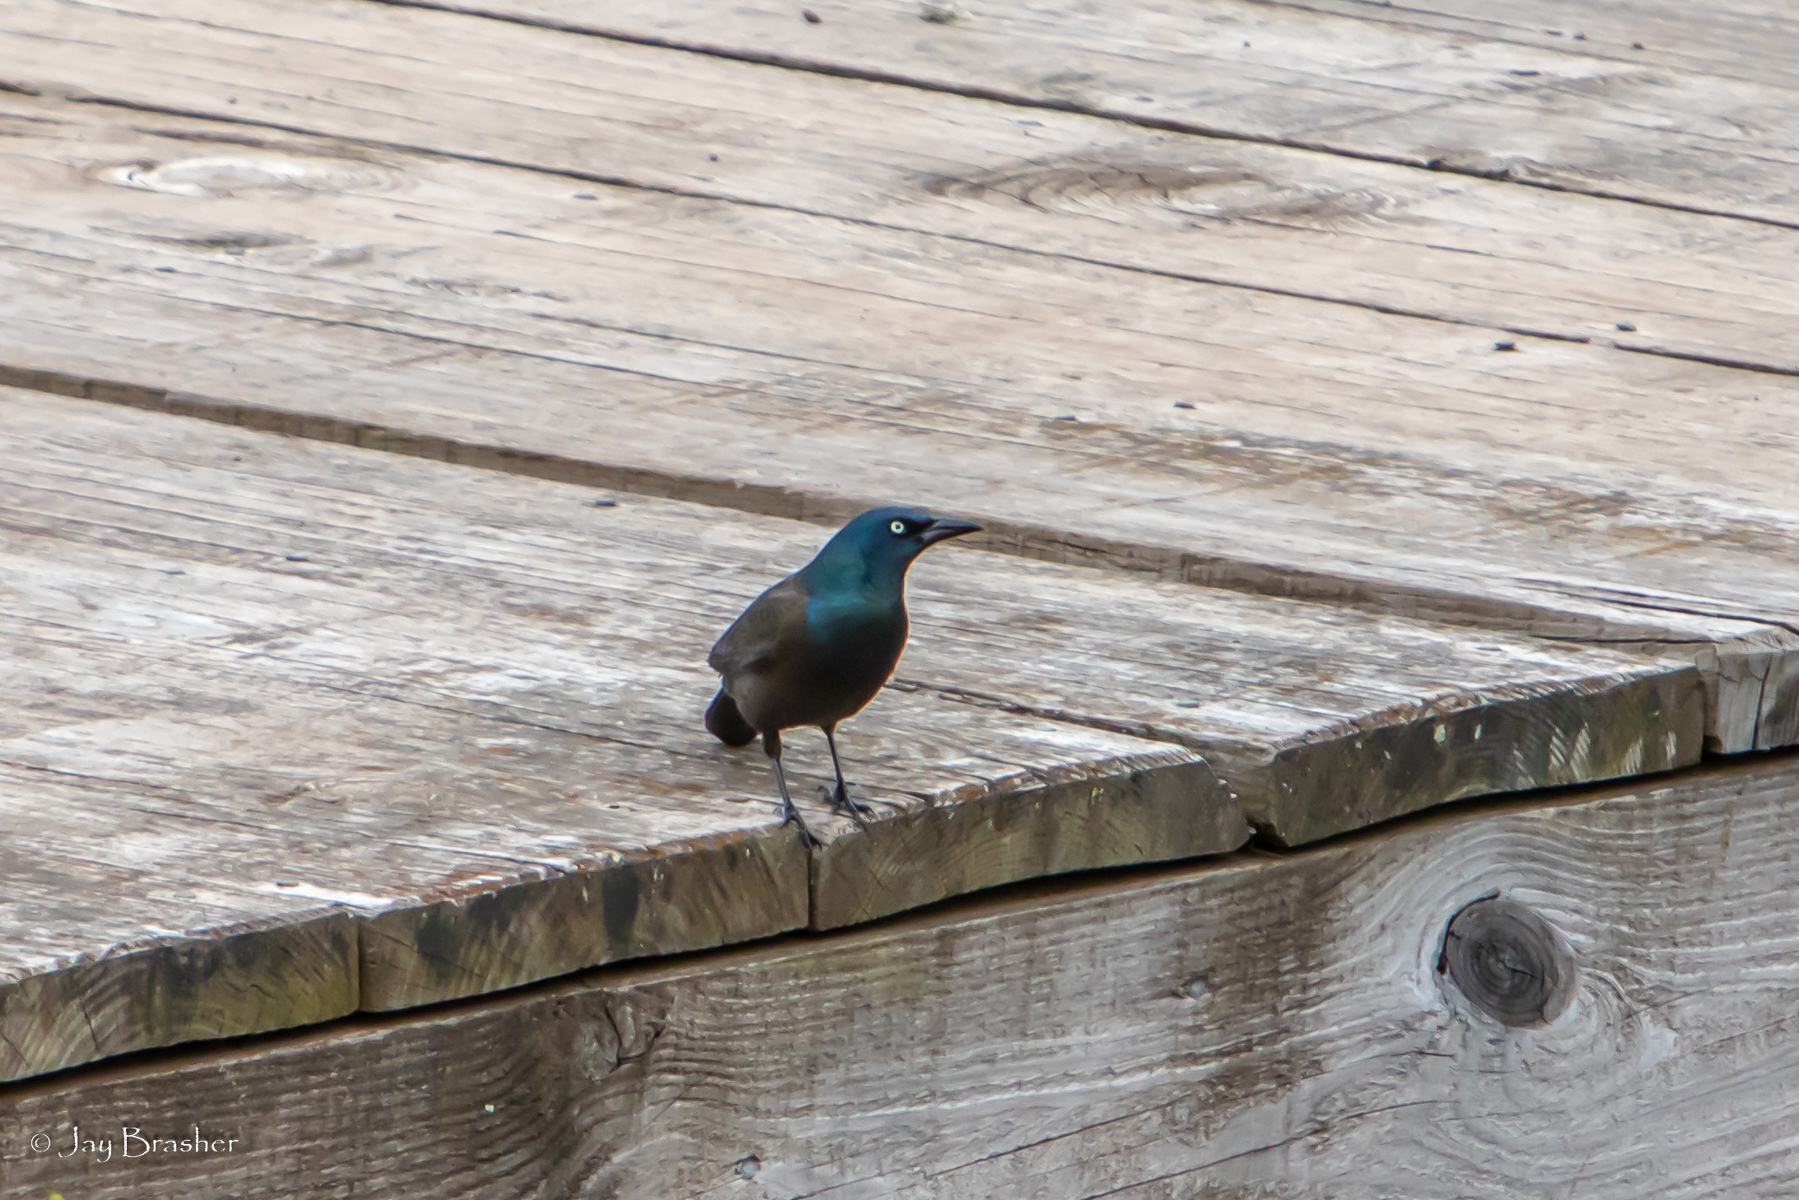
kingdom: Animalia
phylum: Chordata
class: Aves
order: Passeriformes
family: Icteridae
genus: Quiscalus
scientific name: Quiscalus quiscula
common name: Common grackle
